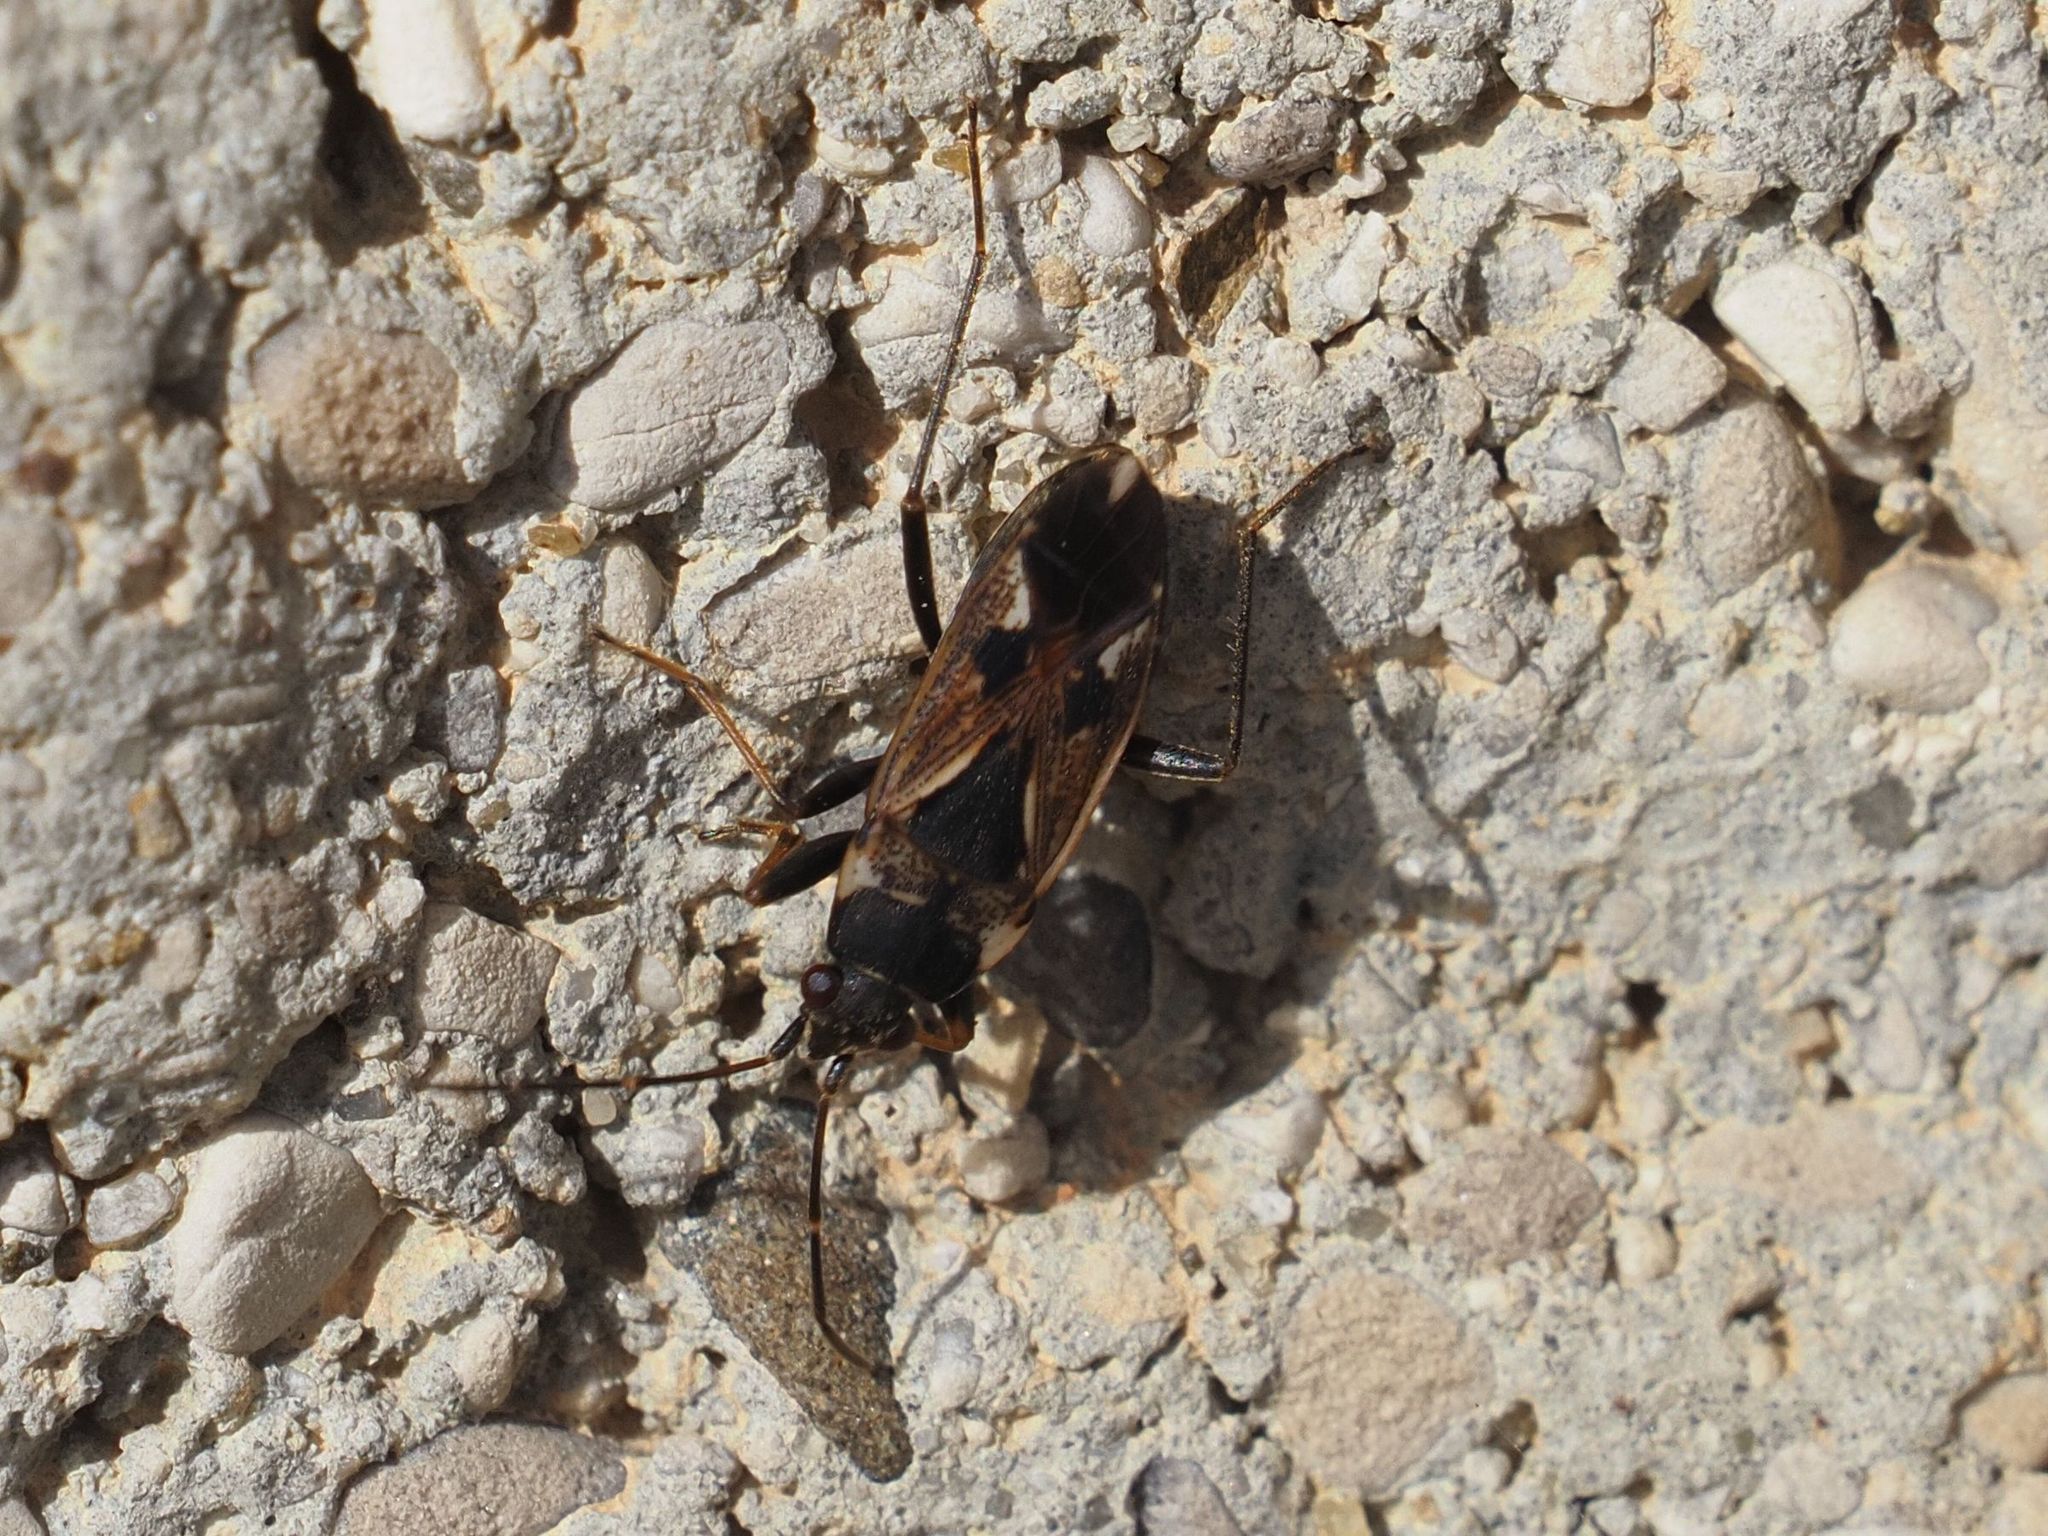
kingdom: Animalia
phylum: Arthropoda
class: Insecta
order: Hemiptera
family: Rhyparochromidae
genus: Rhyparochromus
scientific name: Rhyparochromus vulgaris
